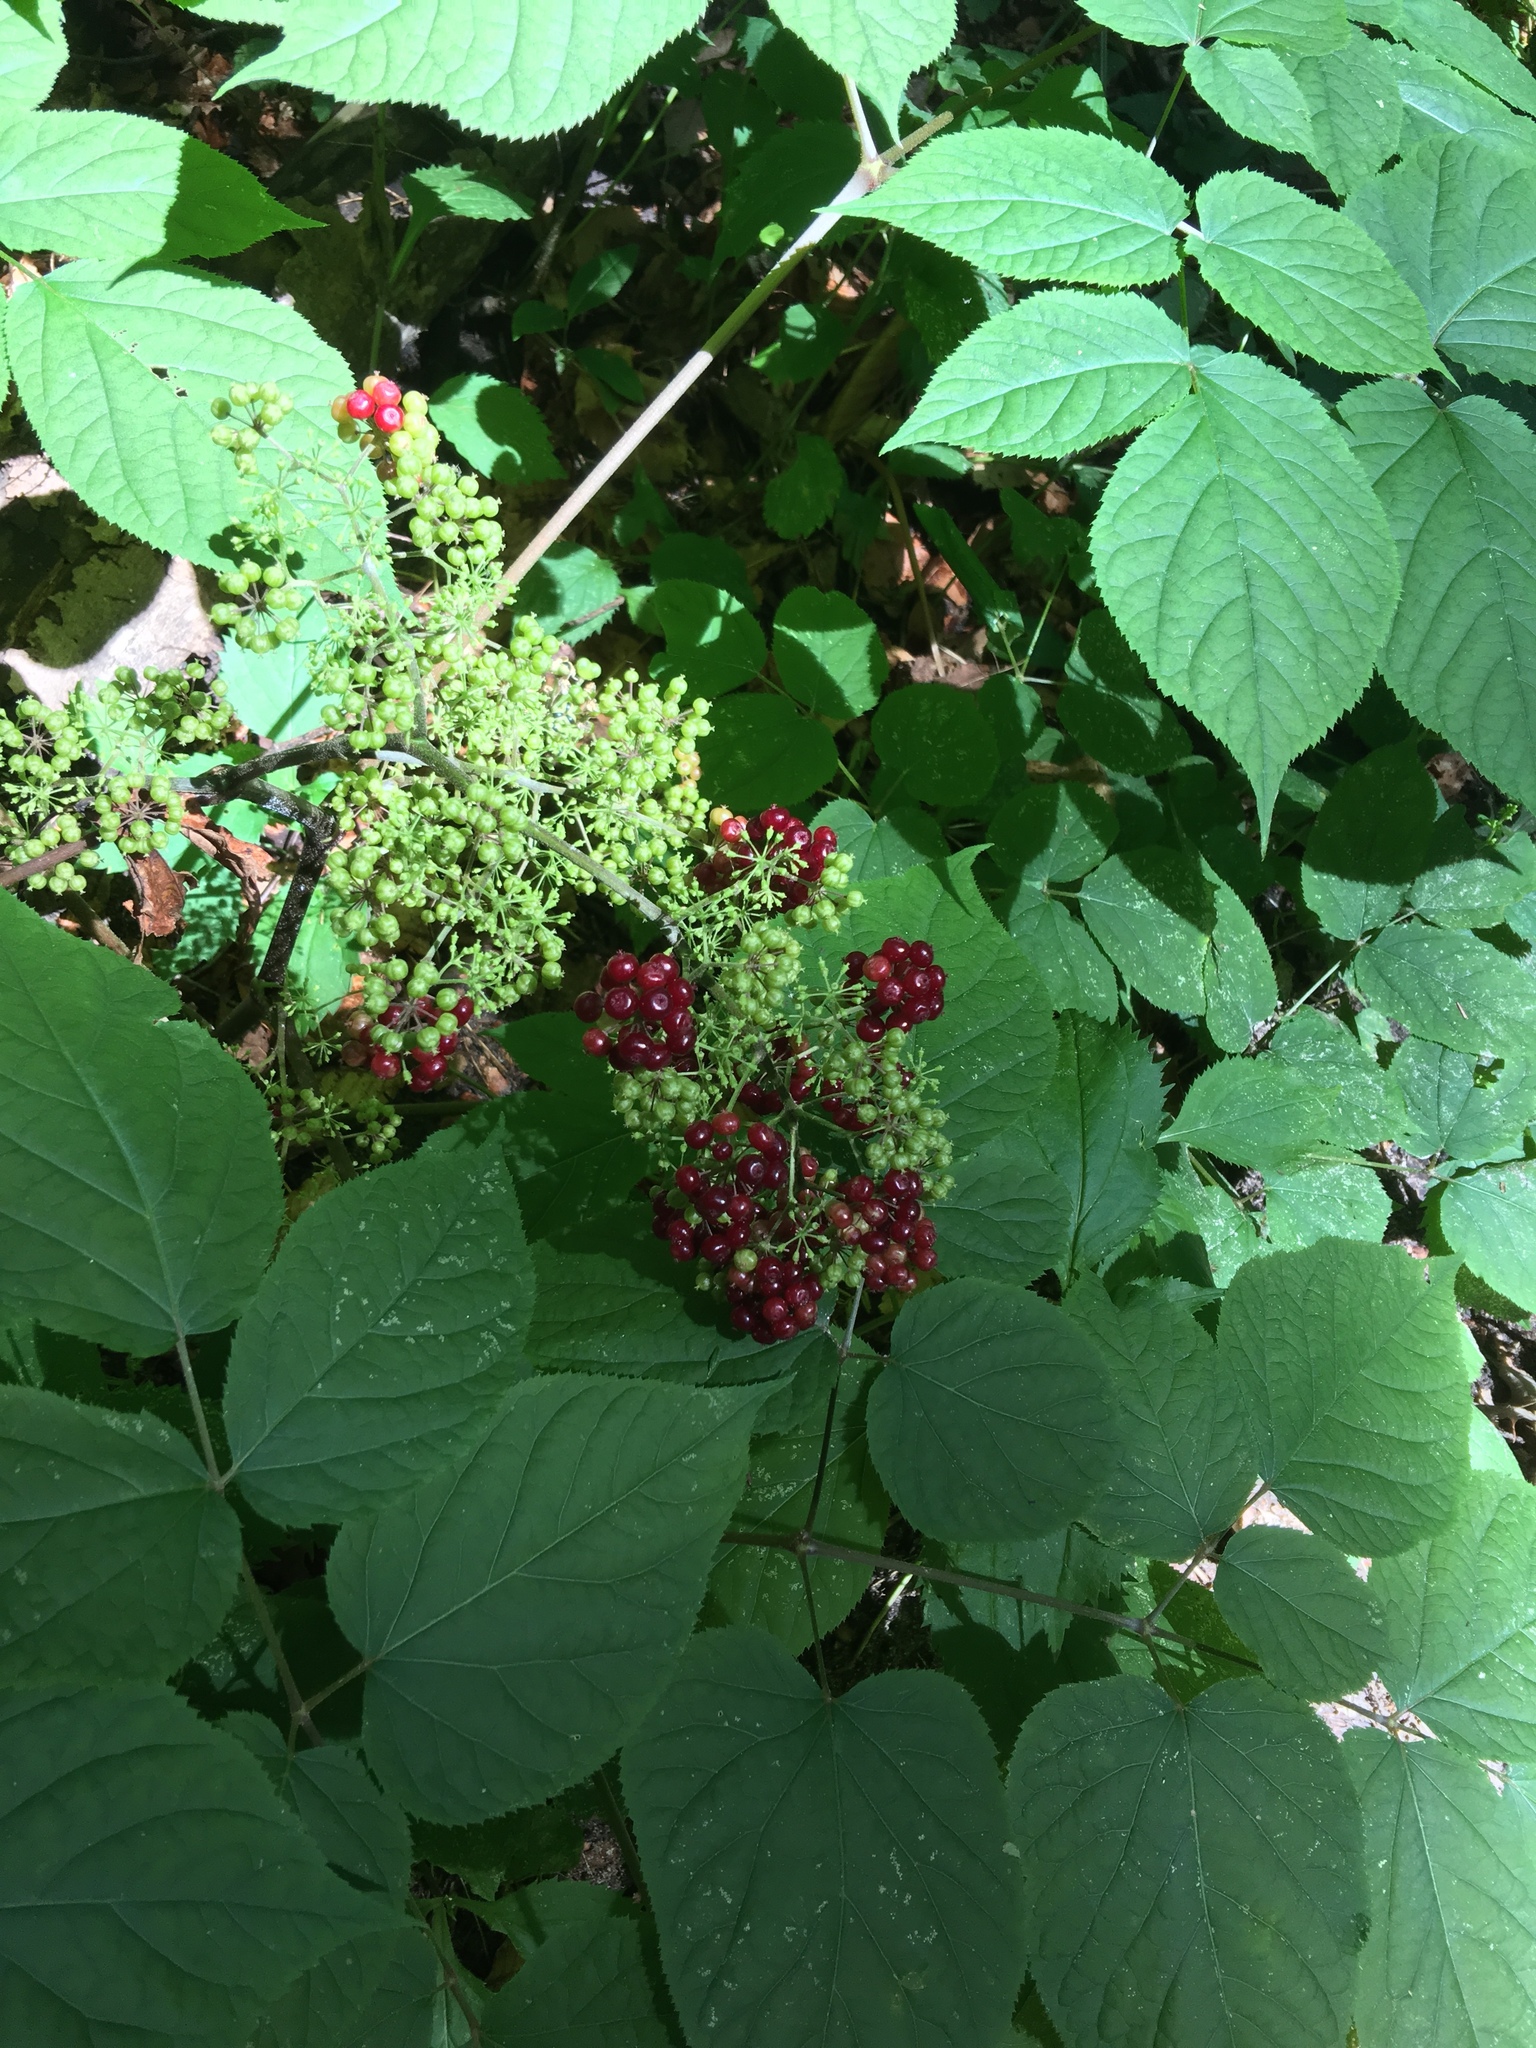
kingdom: Plantae
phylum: Tracheophyta
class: Magnoliopsida
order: Apiales
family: Araliaceae
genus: Aralia
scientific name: Aralia racemosa
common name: American-spikenard
